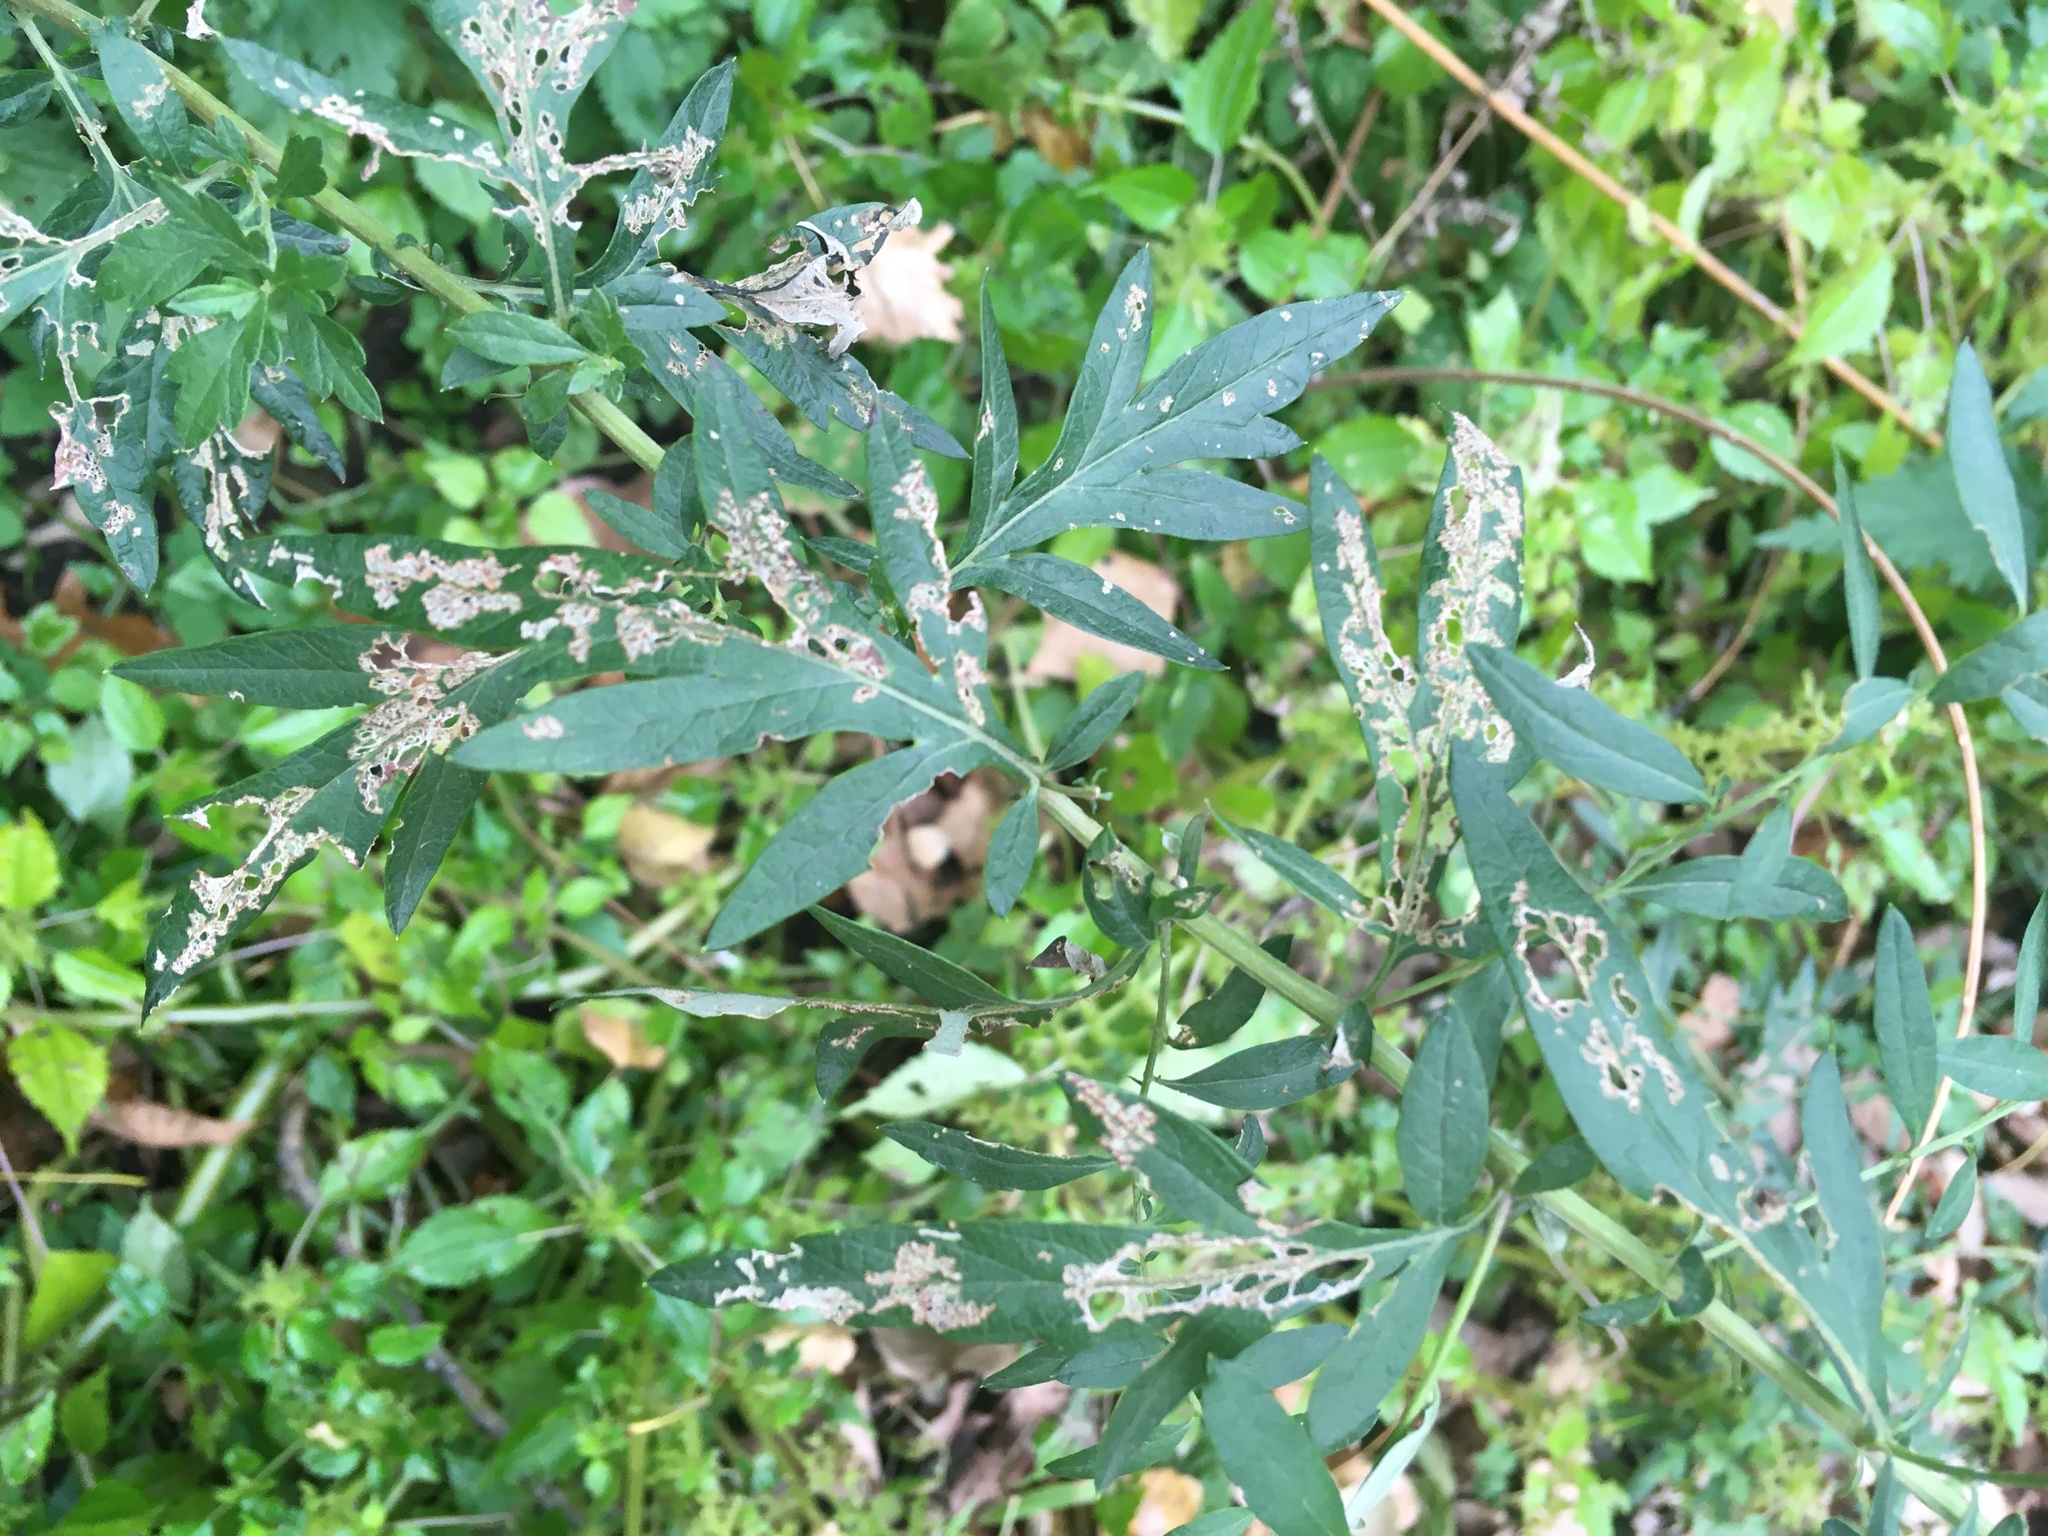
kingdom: Plantae
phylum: Tracheophyta
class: Magnoliopsida
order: Asterales
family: Asteraceae
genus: Artemisia
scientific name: Artemisia vulgaris
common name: Mugwort
